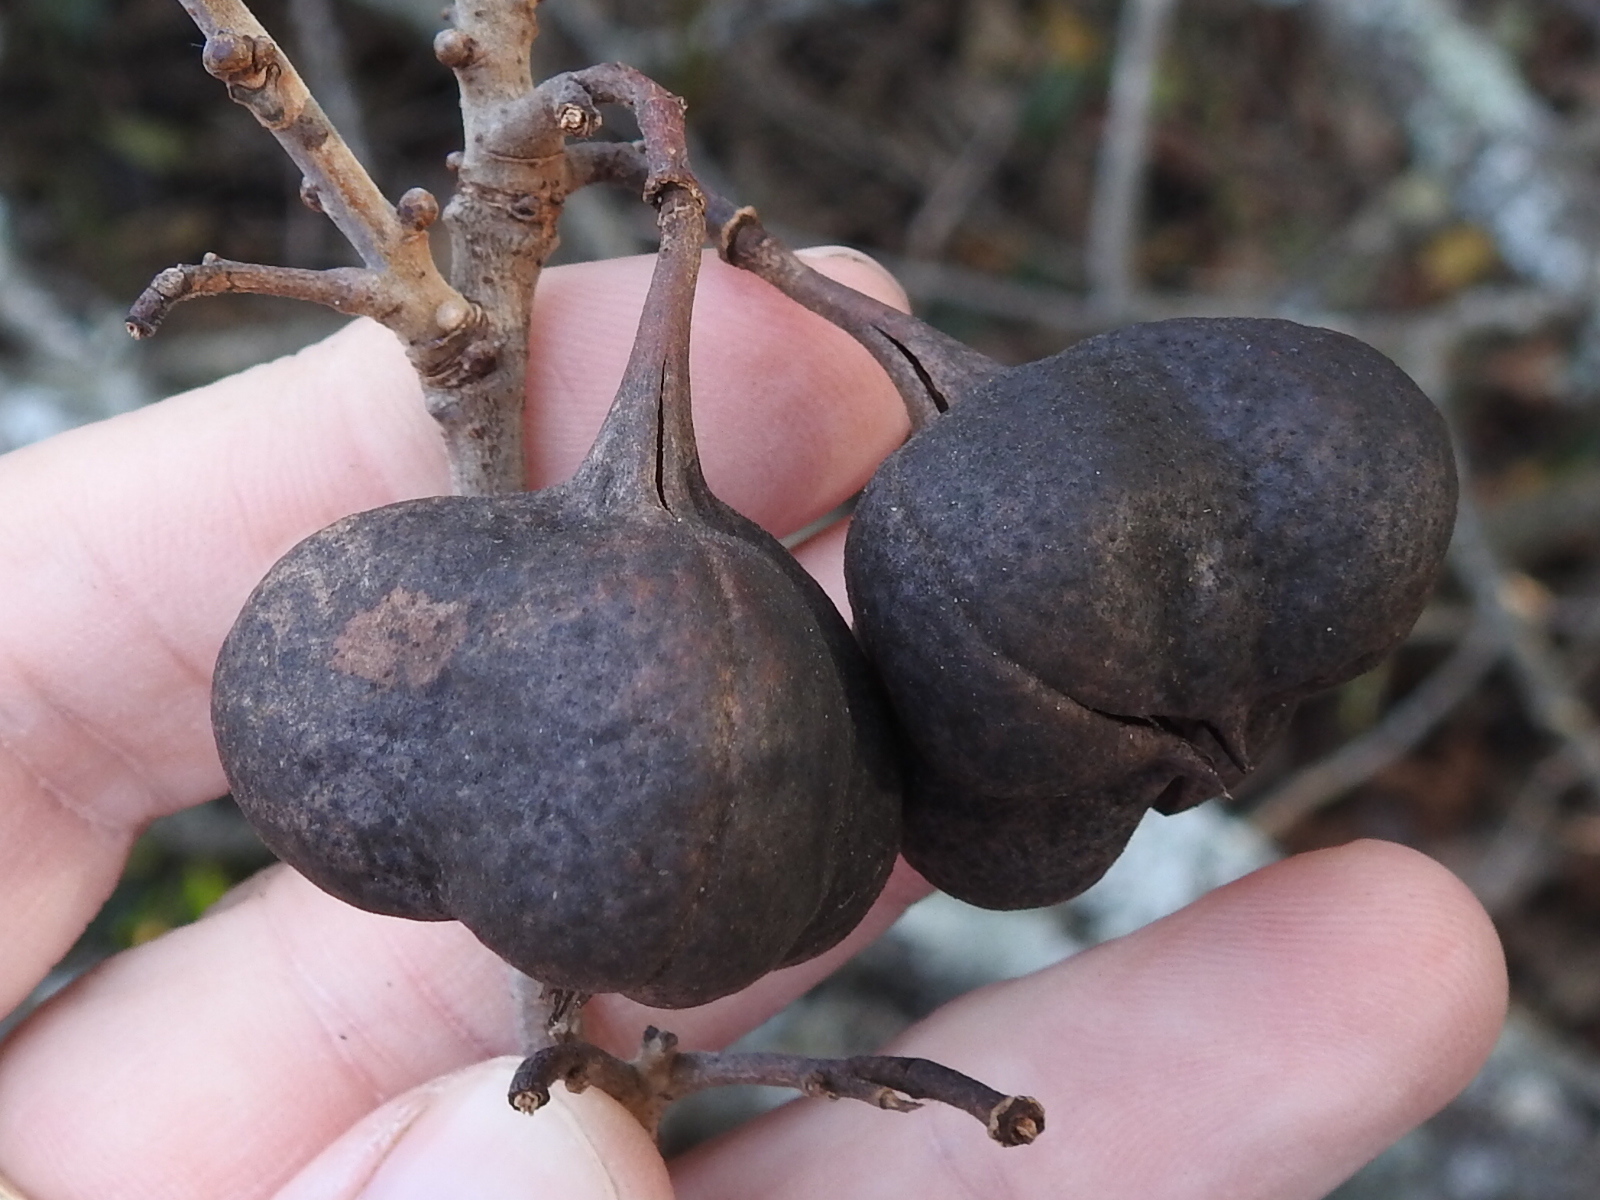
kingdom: Plantae
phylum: Tracheophyta
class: Magnoliopsida
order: Sapindales
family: Sapindaceae
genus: Ungnadia
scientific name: Ungnadia speciosa
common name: Texas-buckeye
